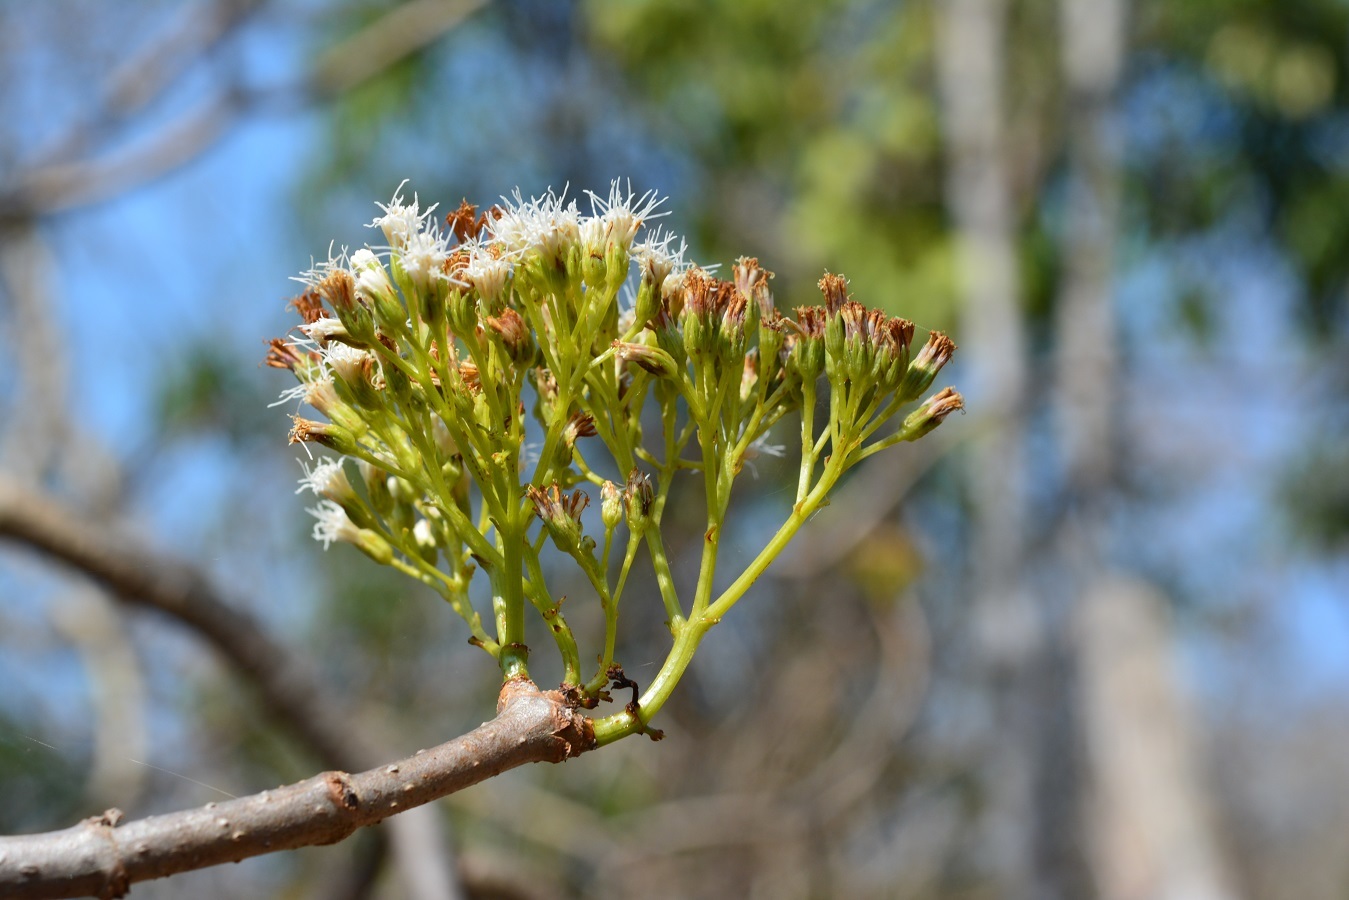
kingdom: Plantae
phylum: Tracheophyta
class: Magnoliopsida
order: Asterales
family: Asteraceae
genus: Ageratina
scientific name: Ageratina crassiramea
